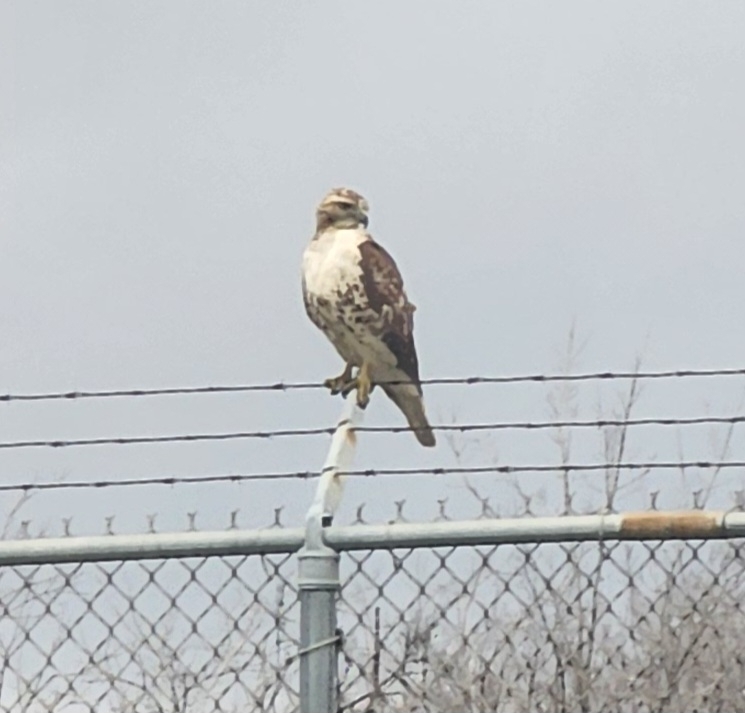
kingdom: Animalia
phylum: Chordata
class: Aves
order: Accipitriformes
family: Accipitridae
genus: Buteo
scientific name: Buteo jamaicensis
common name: Red-tailed hawk
